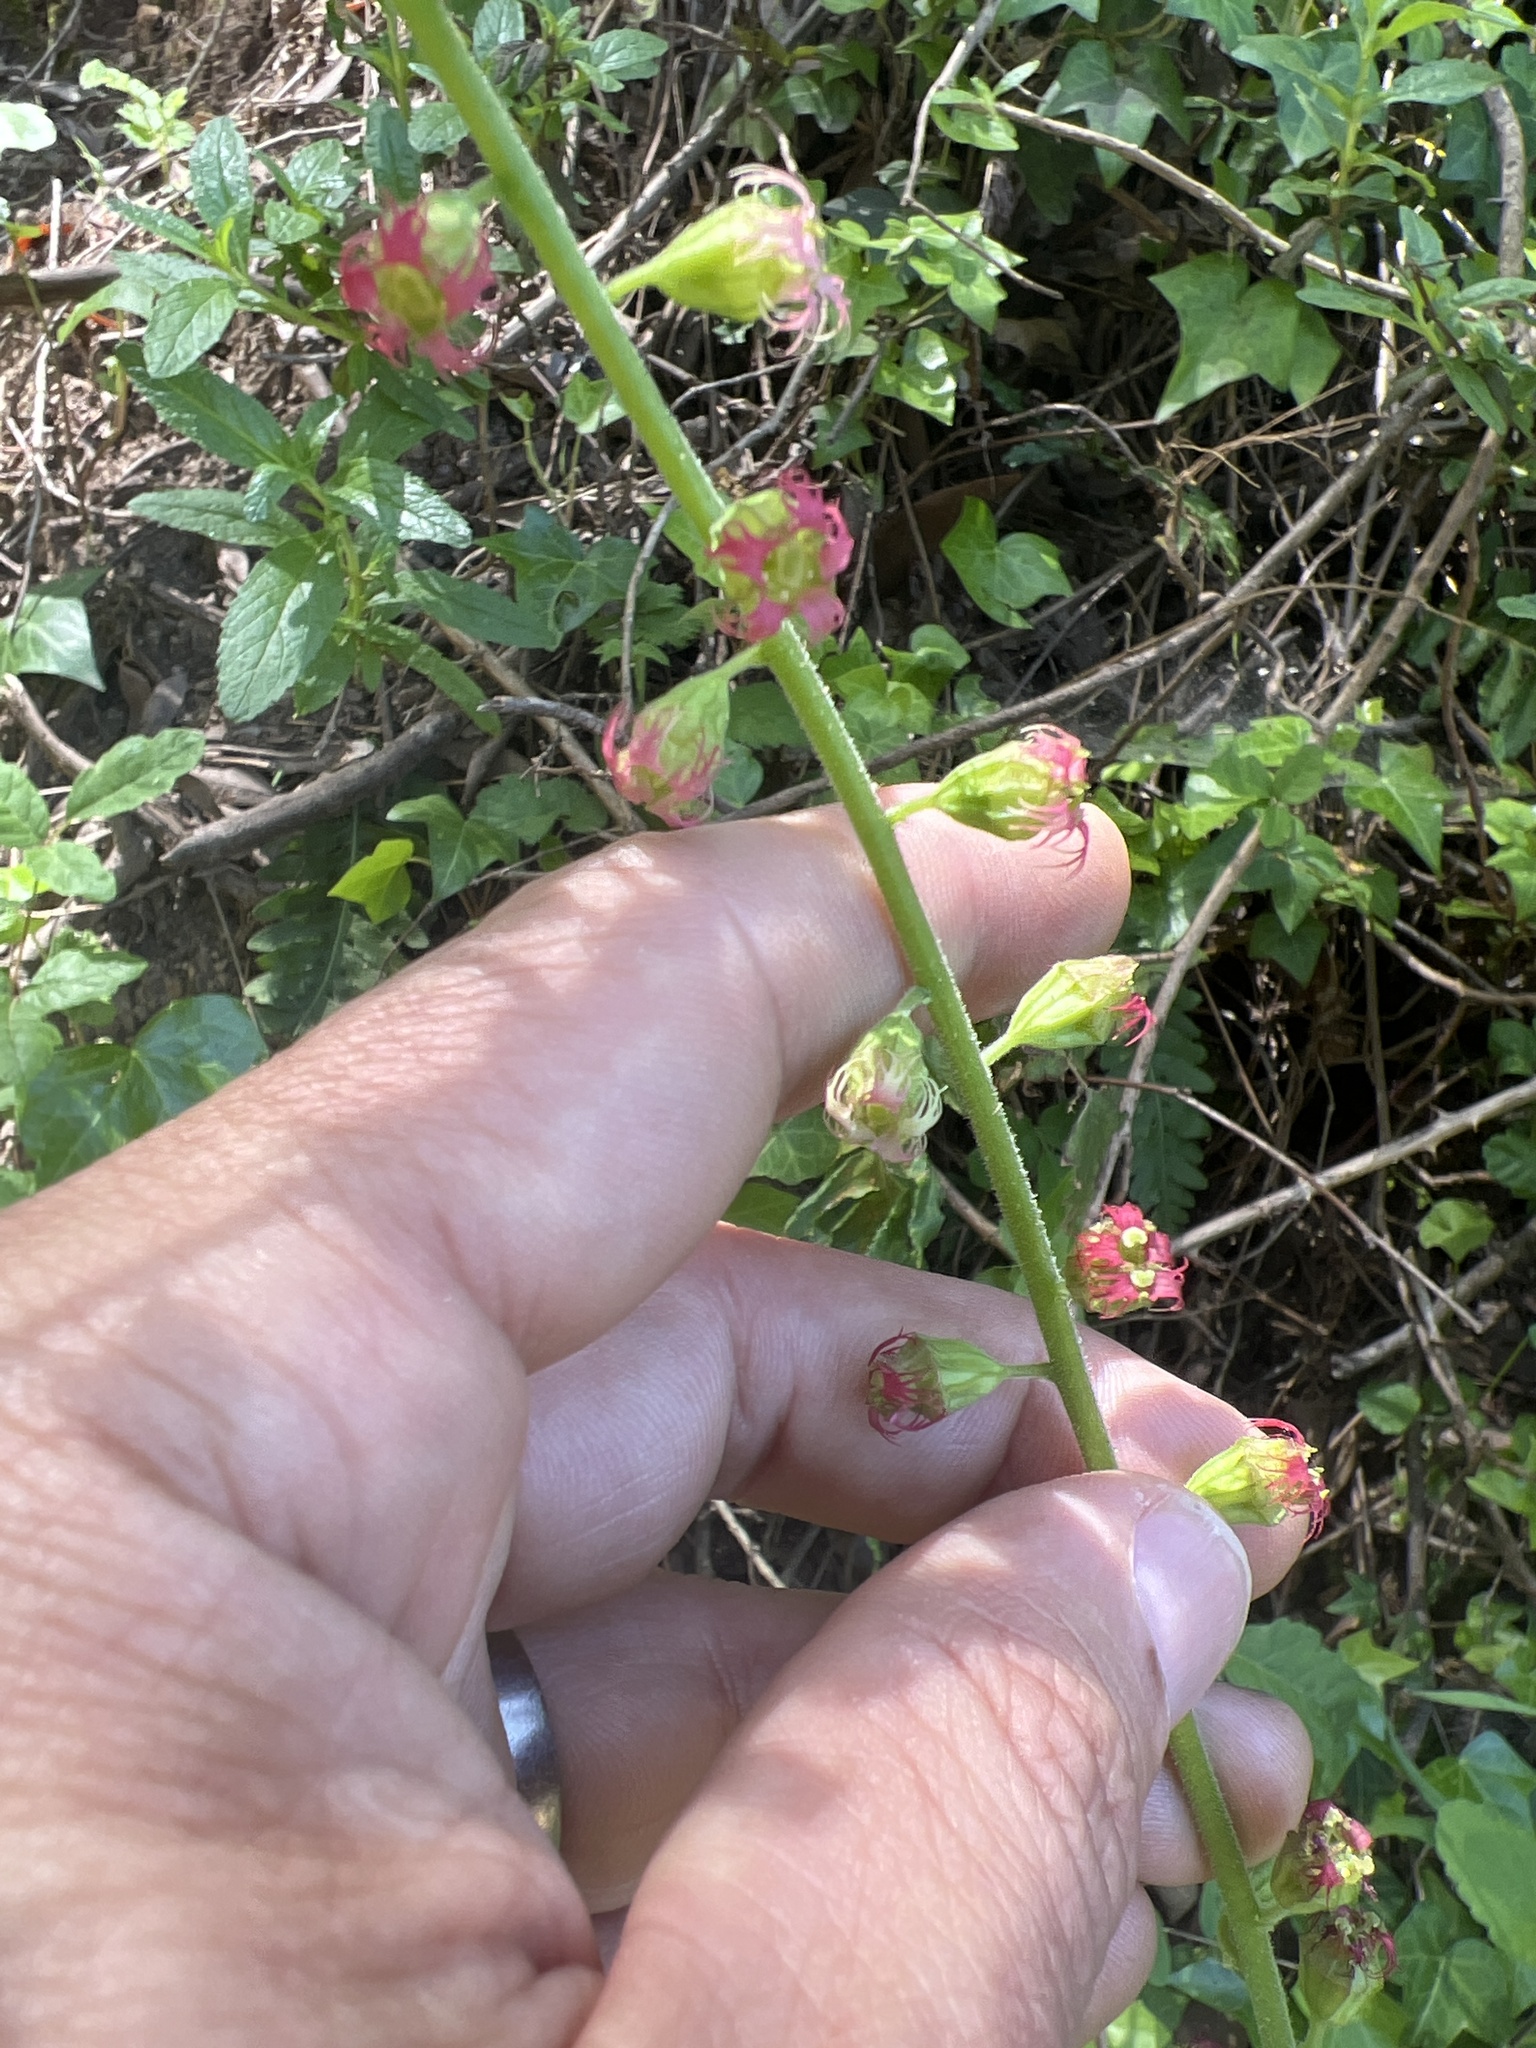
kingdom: Plantae
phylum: Tracheophyta
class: Magnoliopsida
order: Saxifragales
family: Saxifragaceae
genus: Tellima
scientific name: Tellima grandiflora
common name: Fringecups
